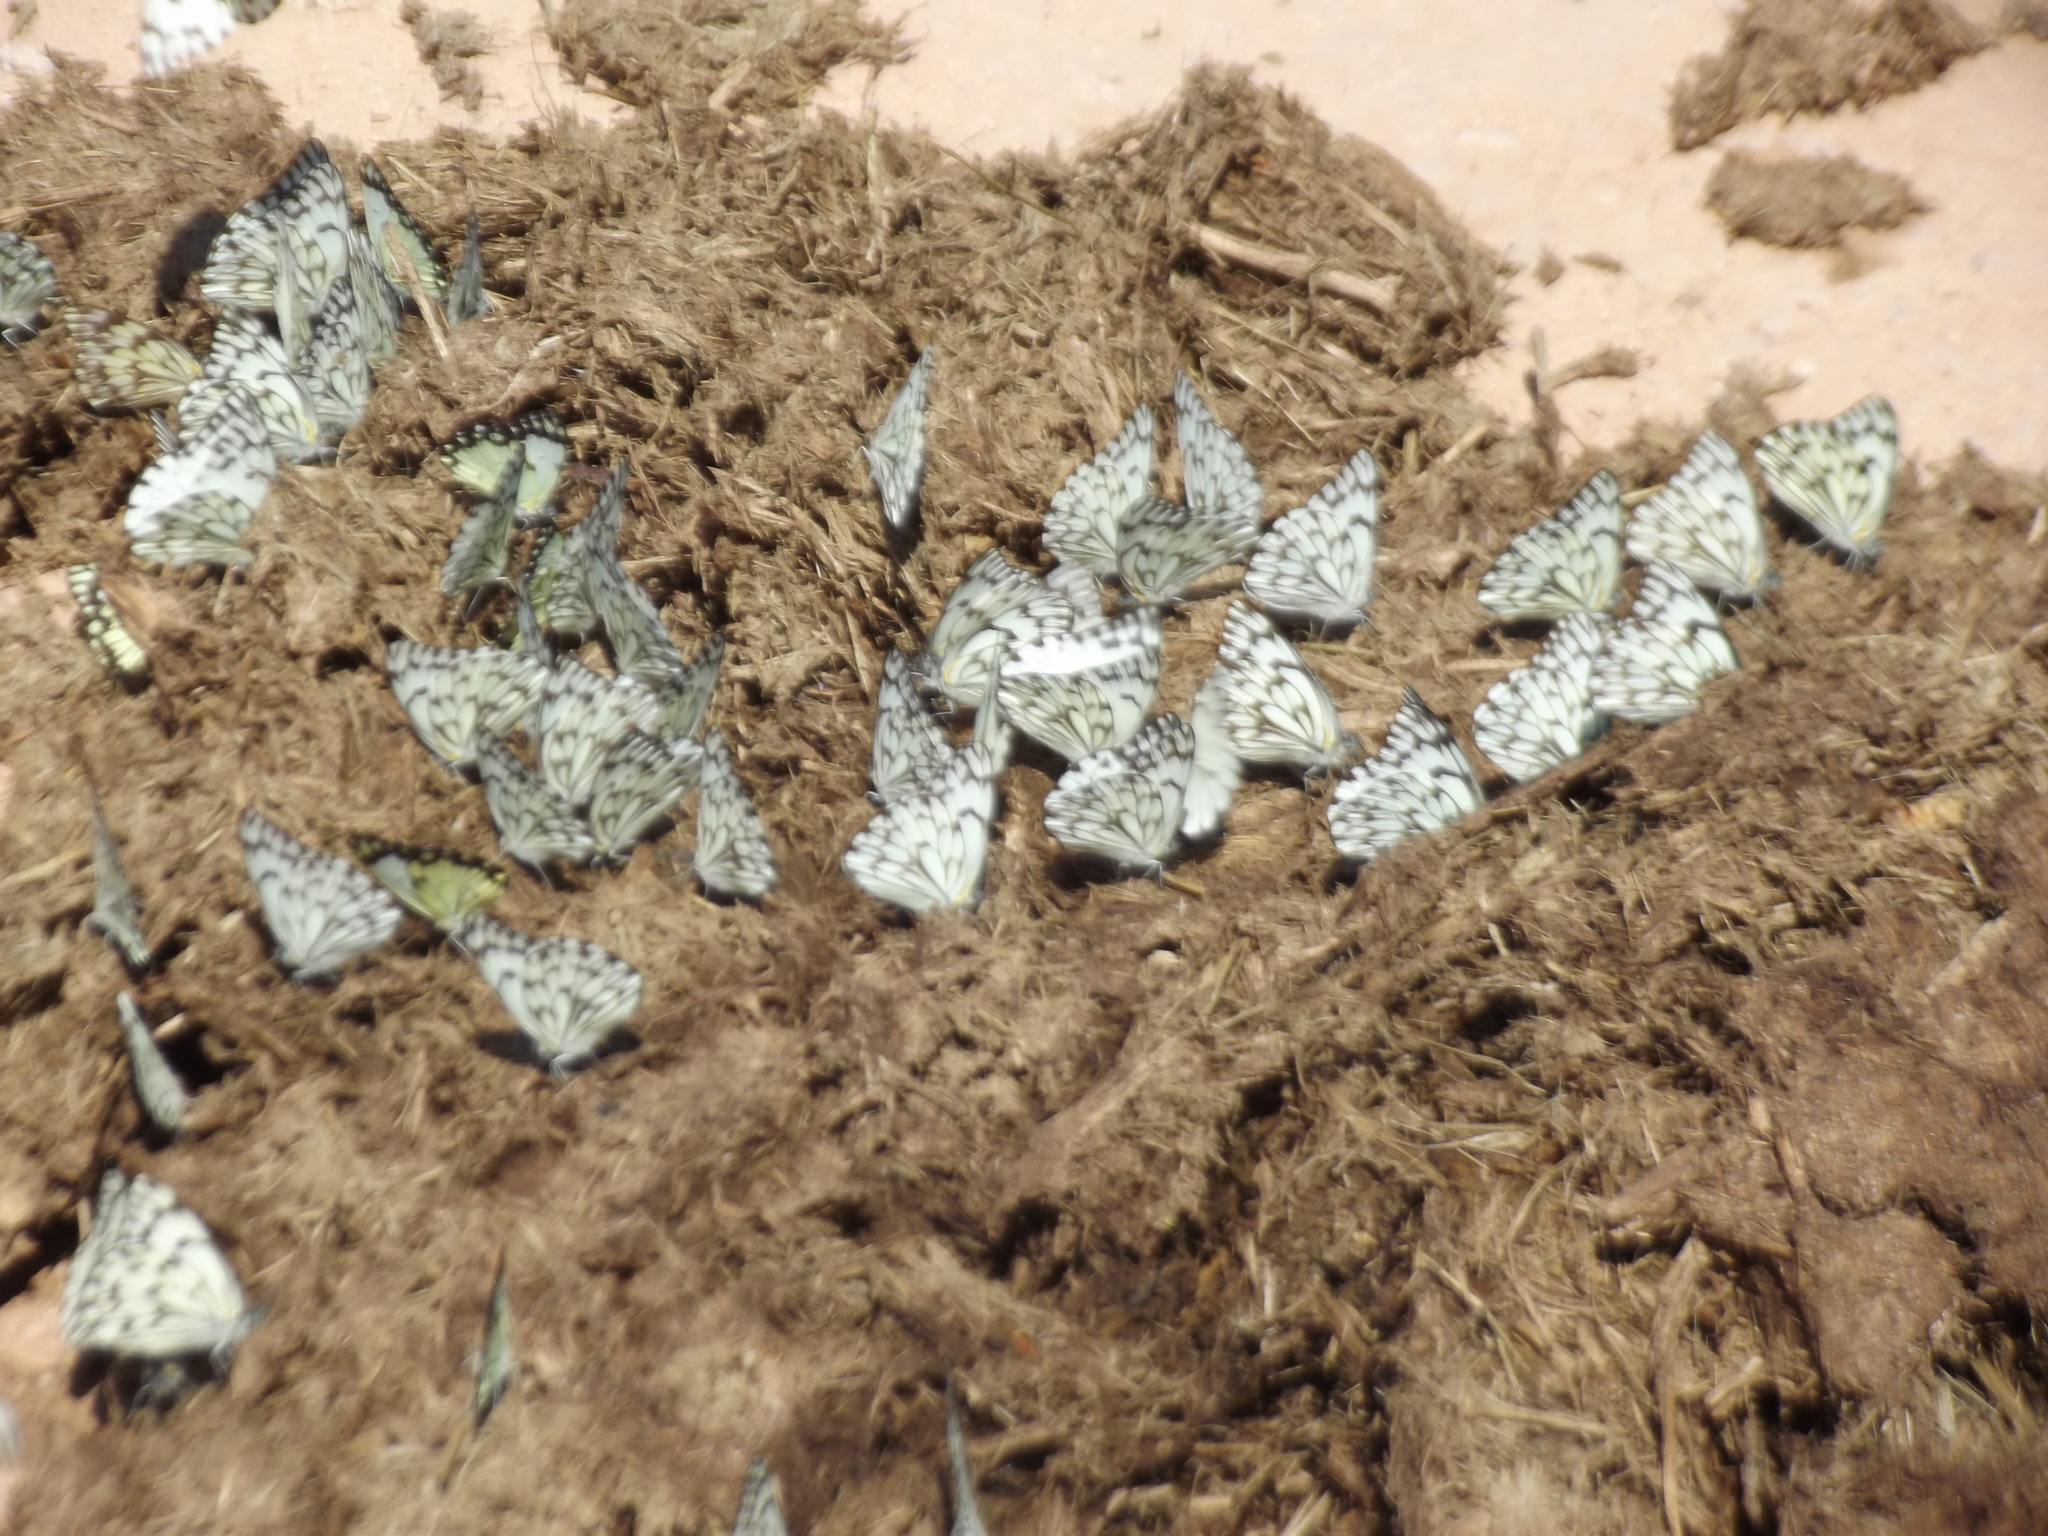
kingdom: Animalia
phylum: Arthropoda
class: Insecta
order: Lepidoptera
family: Pieridae
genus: Belenois
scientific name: Belenois gidica
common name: Pointed caper white
